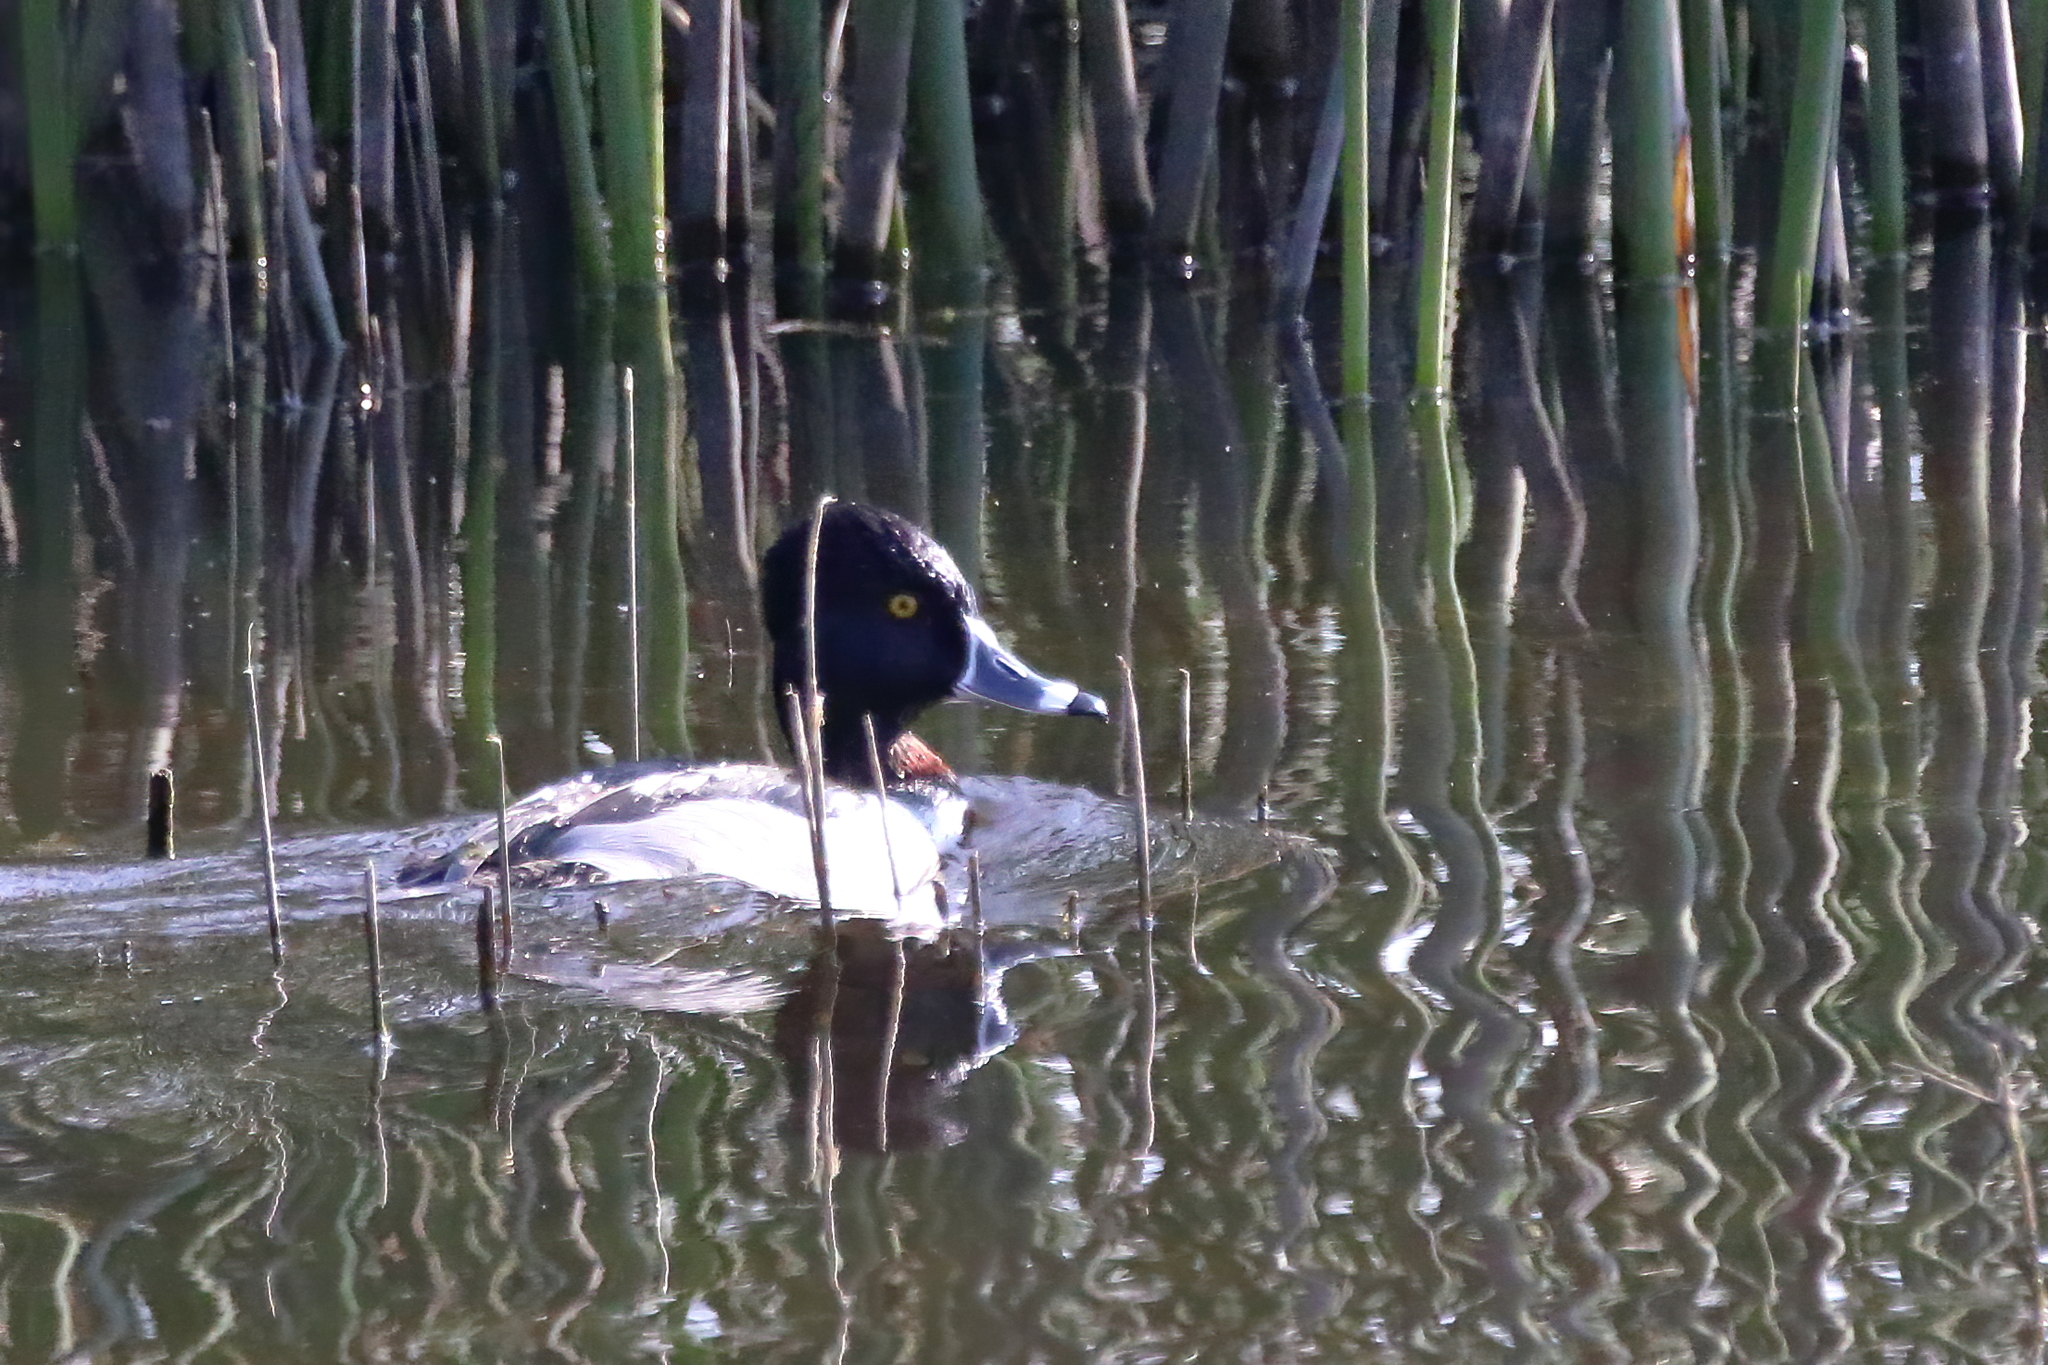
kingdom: Animalia
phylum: Chordata
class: Aves
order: Anseriformes
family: Anatidae
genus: Aythya
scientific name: Aythya collaris
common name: Ring-necked duck
